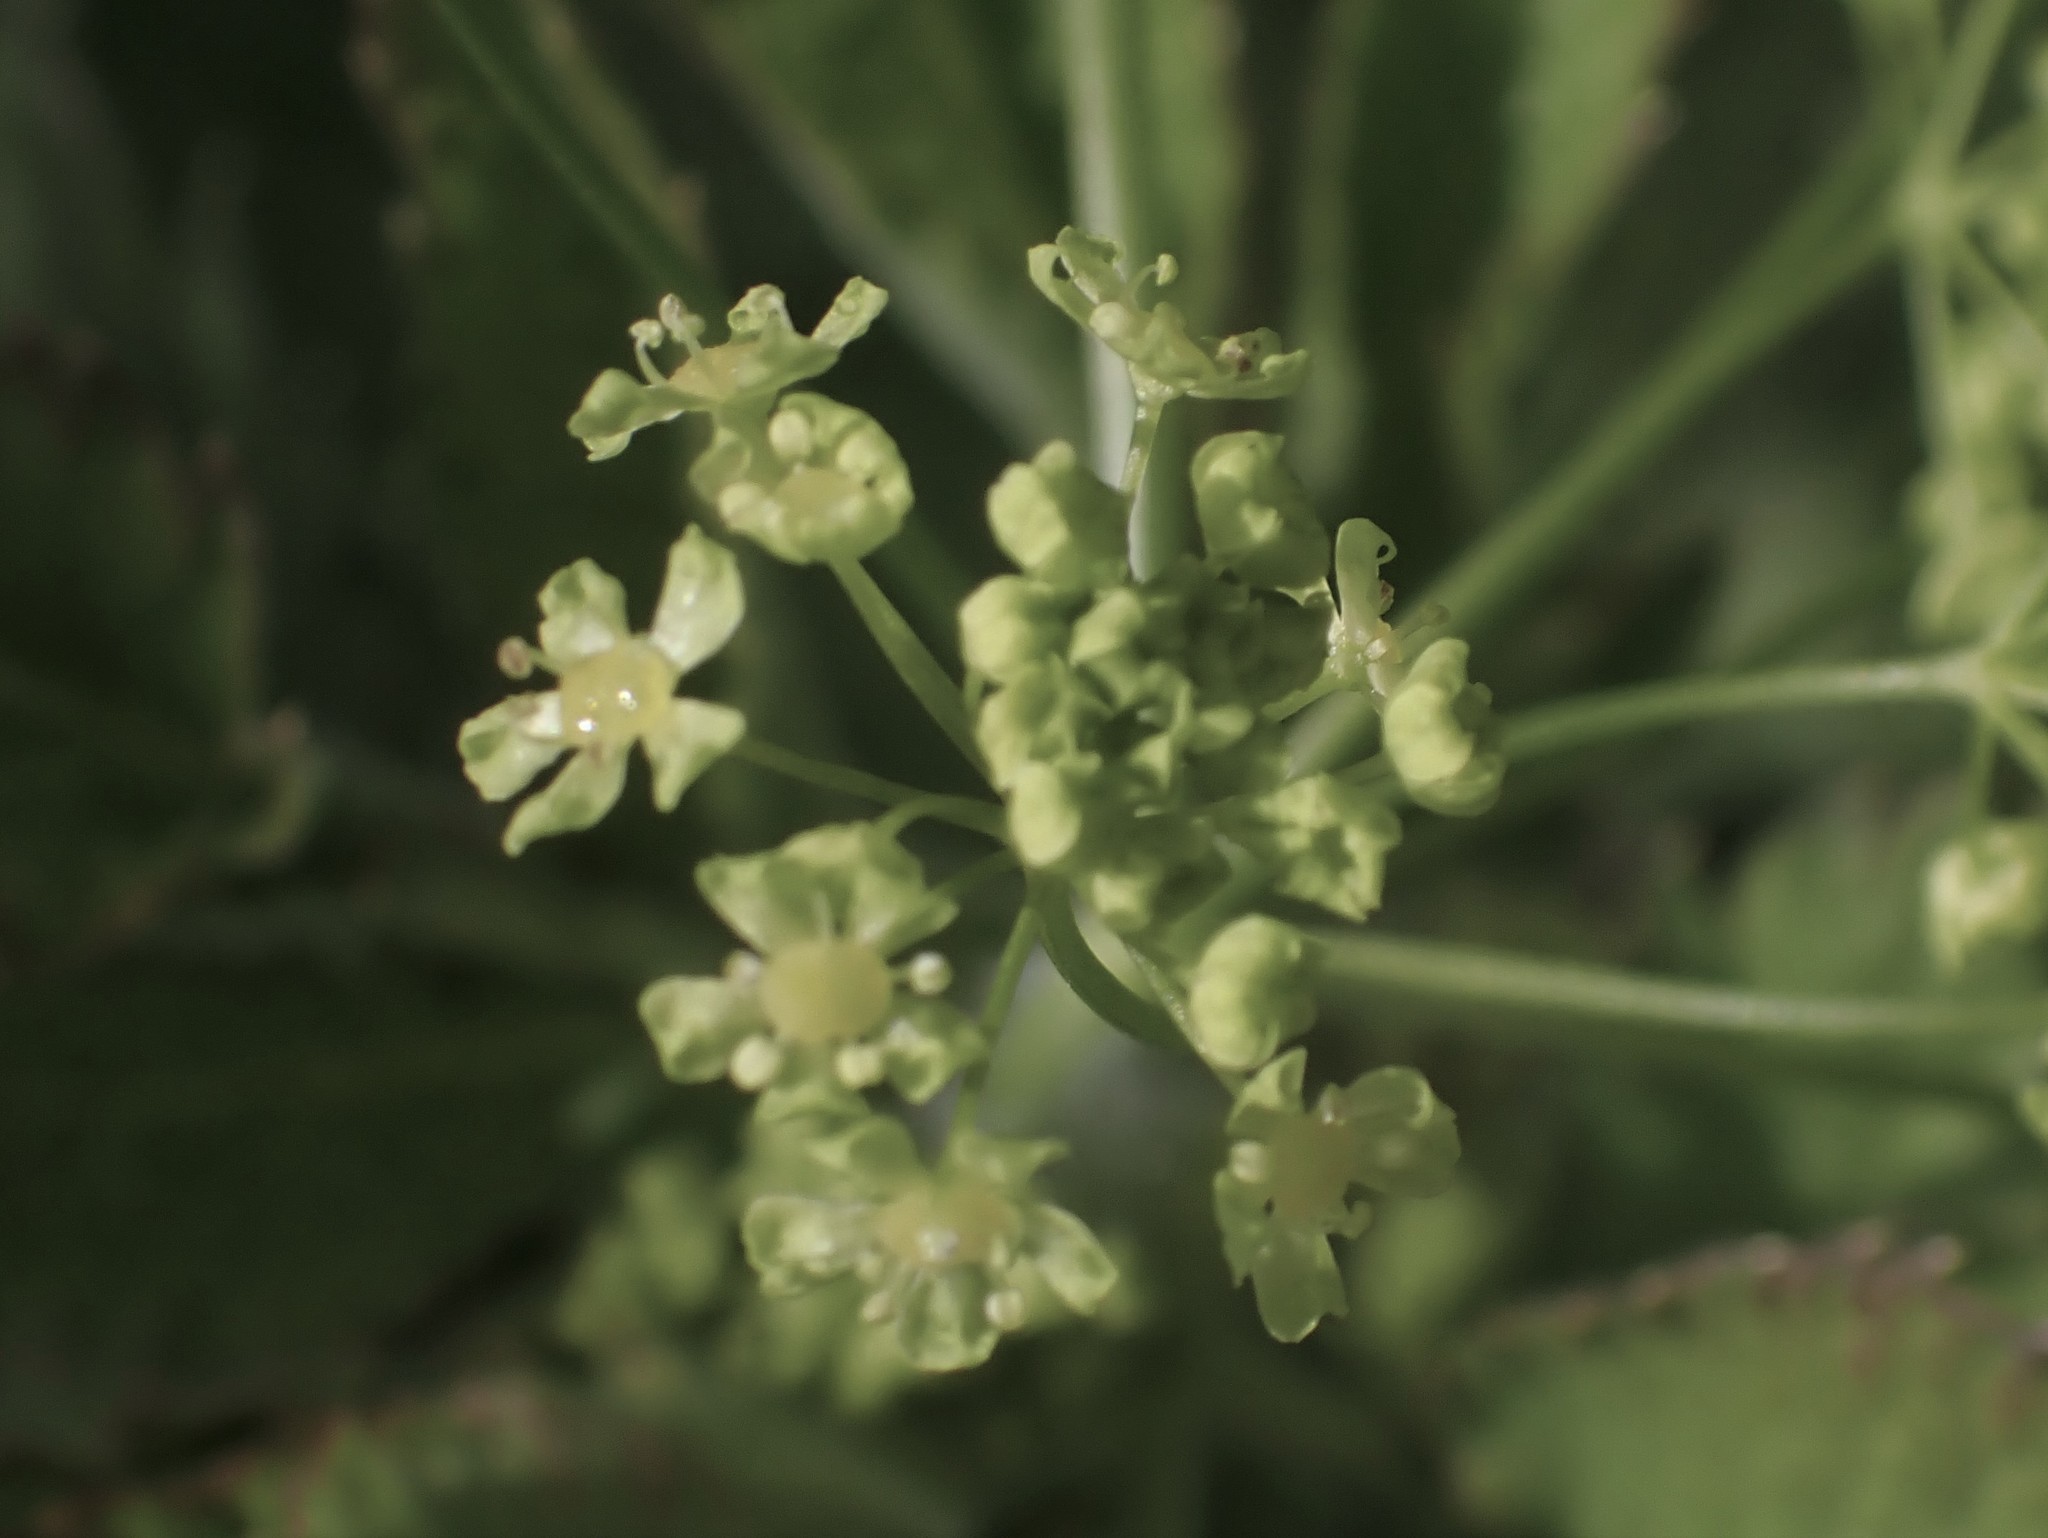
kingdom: Plantae
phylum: Tracheophyta
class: Magnoliopsida
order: Apiales
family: Apiaceae
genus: Osmorhiza
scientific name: Osmorhiza occidentalis
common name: Western sweet cicely
